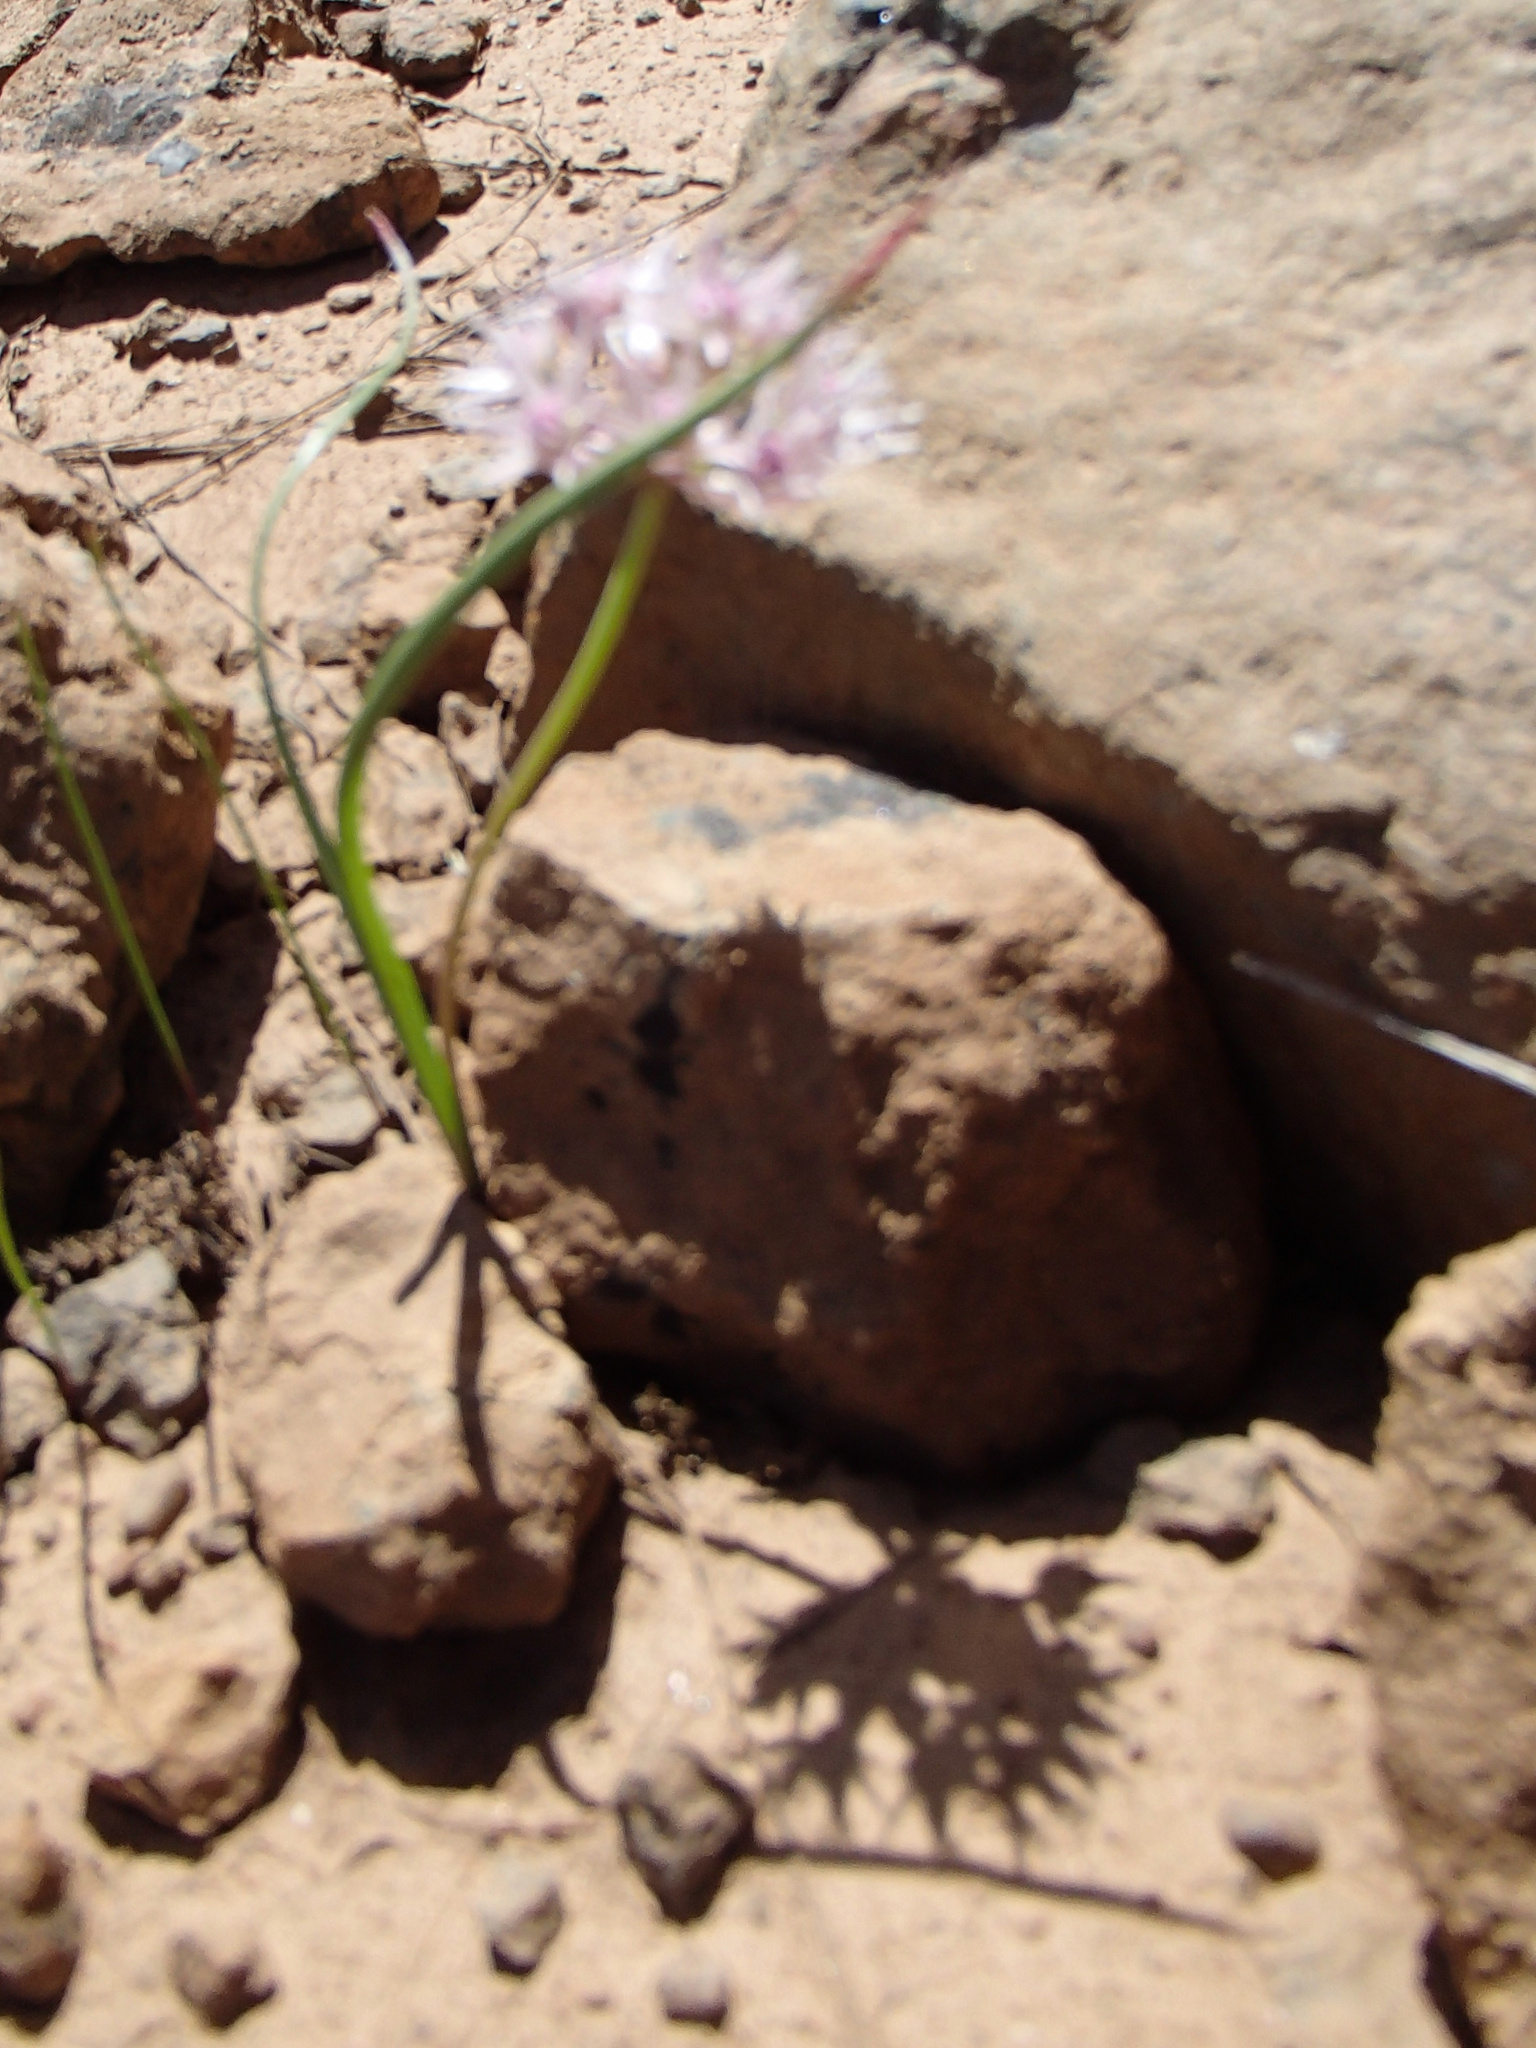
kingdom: Plantae
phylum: Tracheophyta
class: Liliopsida
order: Asparagales
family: Amaryllidaceae
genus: Allium
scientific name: Allium macrum
